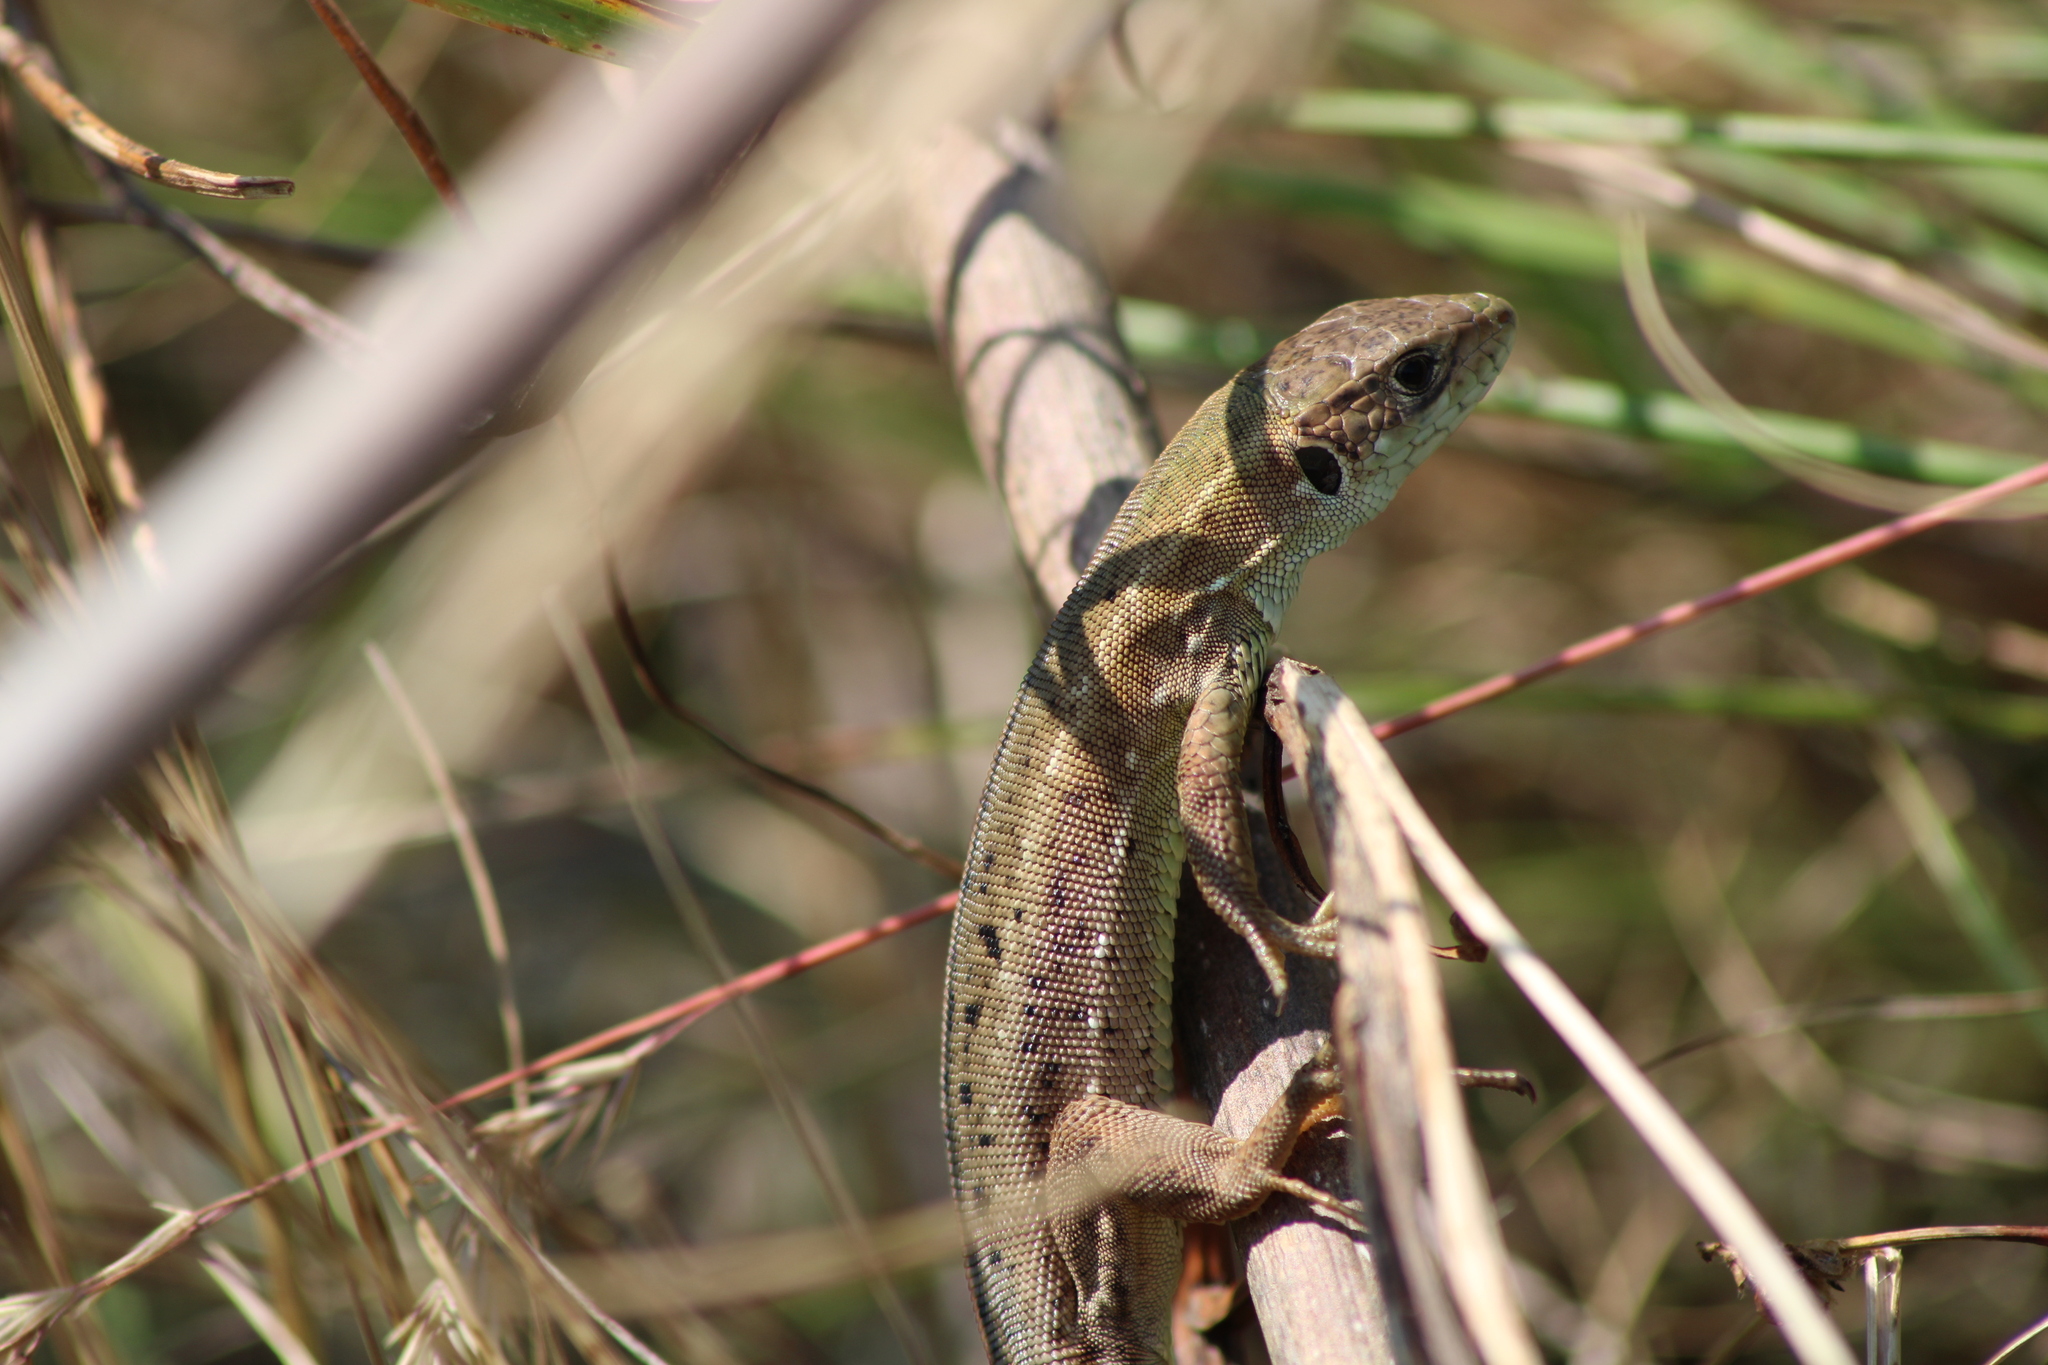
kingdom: Animalia
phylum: Chordata
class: Squamata
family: Lacertidae
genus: Lacerta
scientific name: Lacerta viridis
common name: European green lizard
